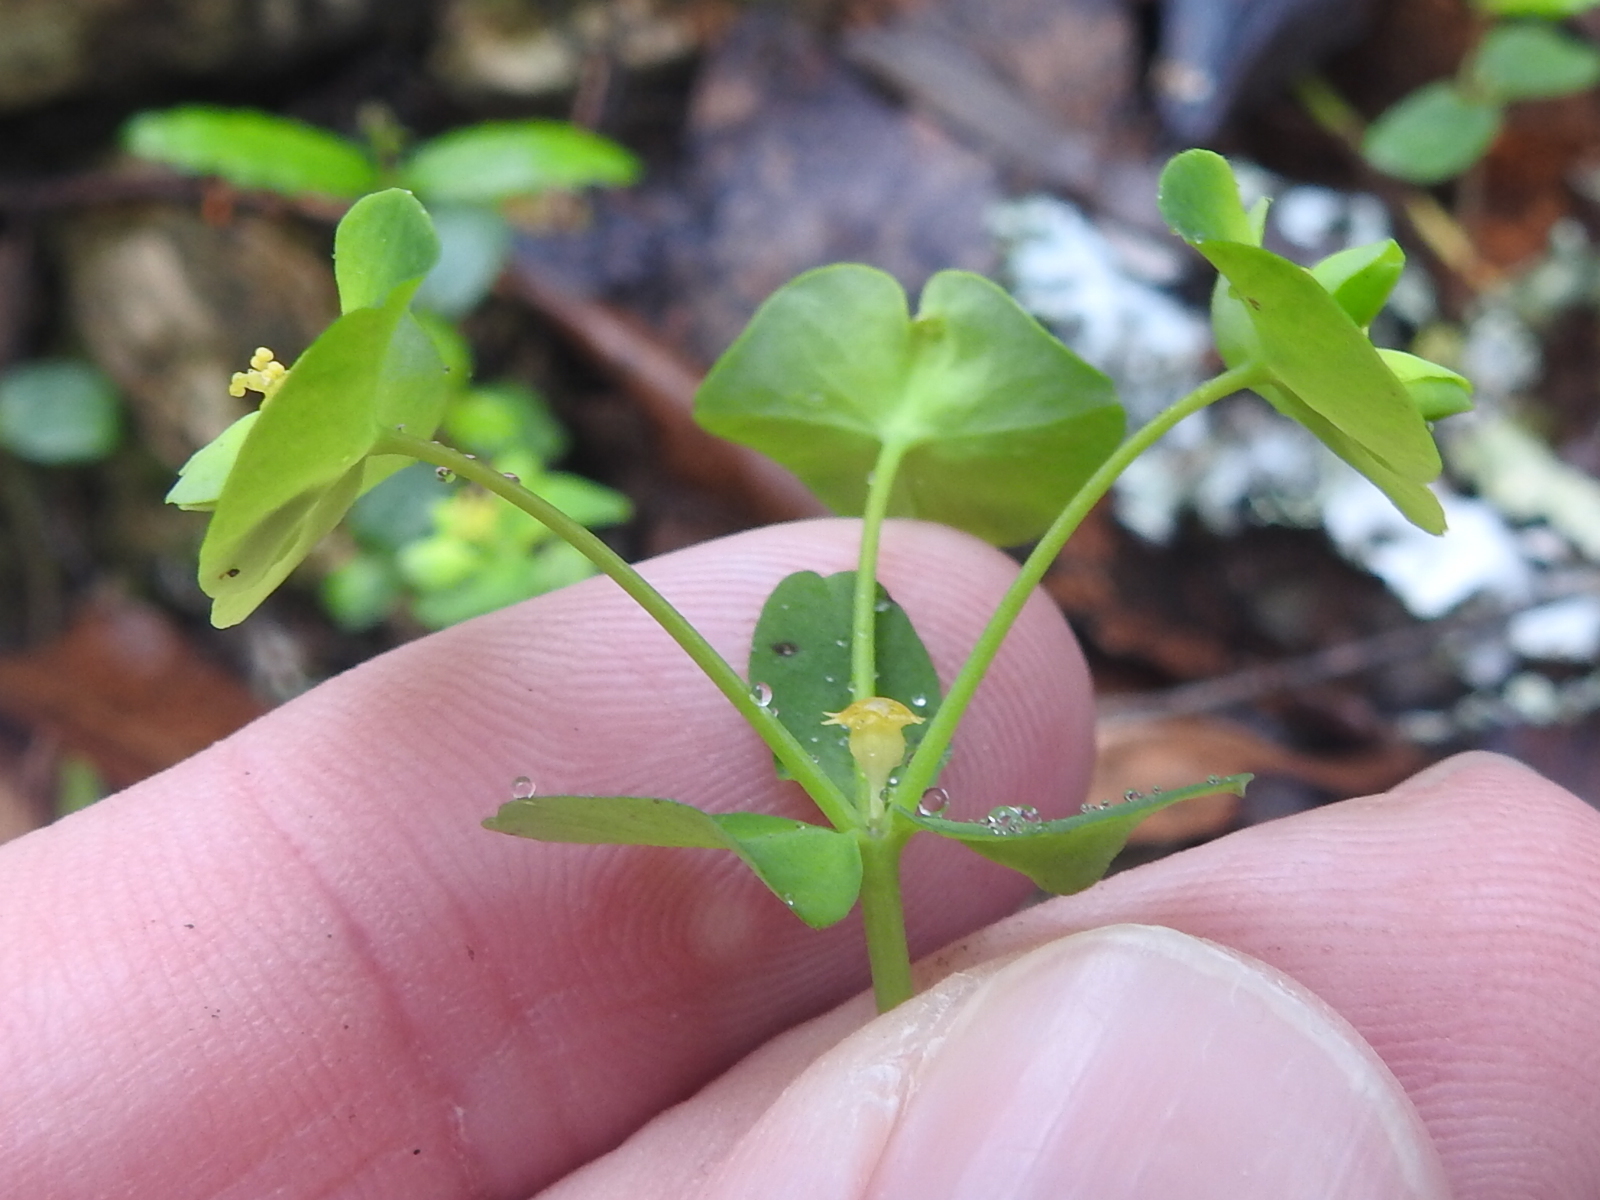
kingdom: Plantae
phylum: Tracheophyta
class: Magnoliopsida
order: Malpighiales
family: Euphorbiaceae
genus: Euphorbia
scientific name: Euphorbia roemeriana
